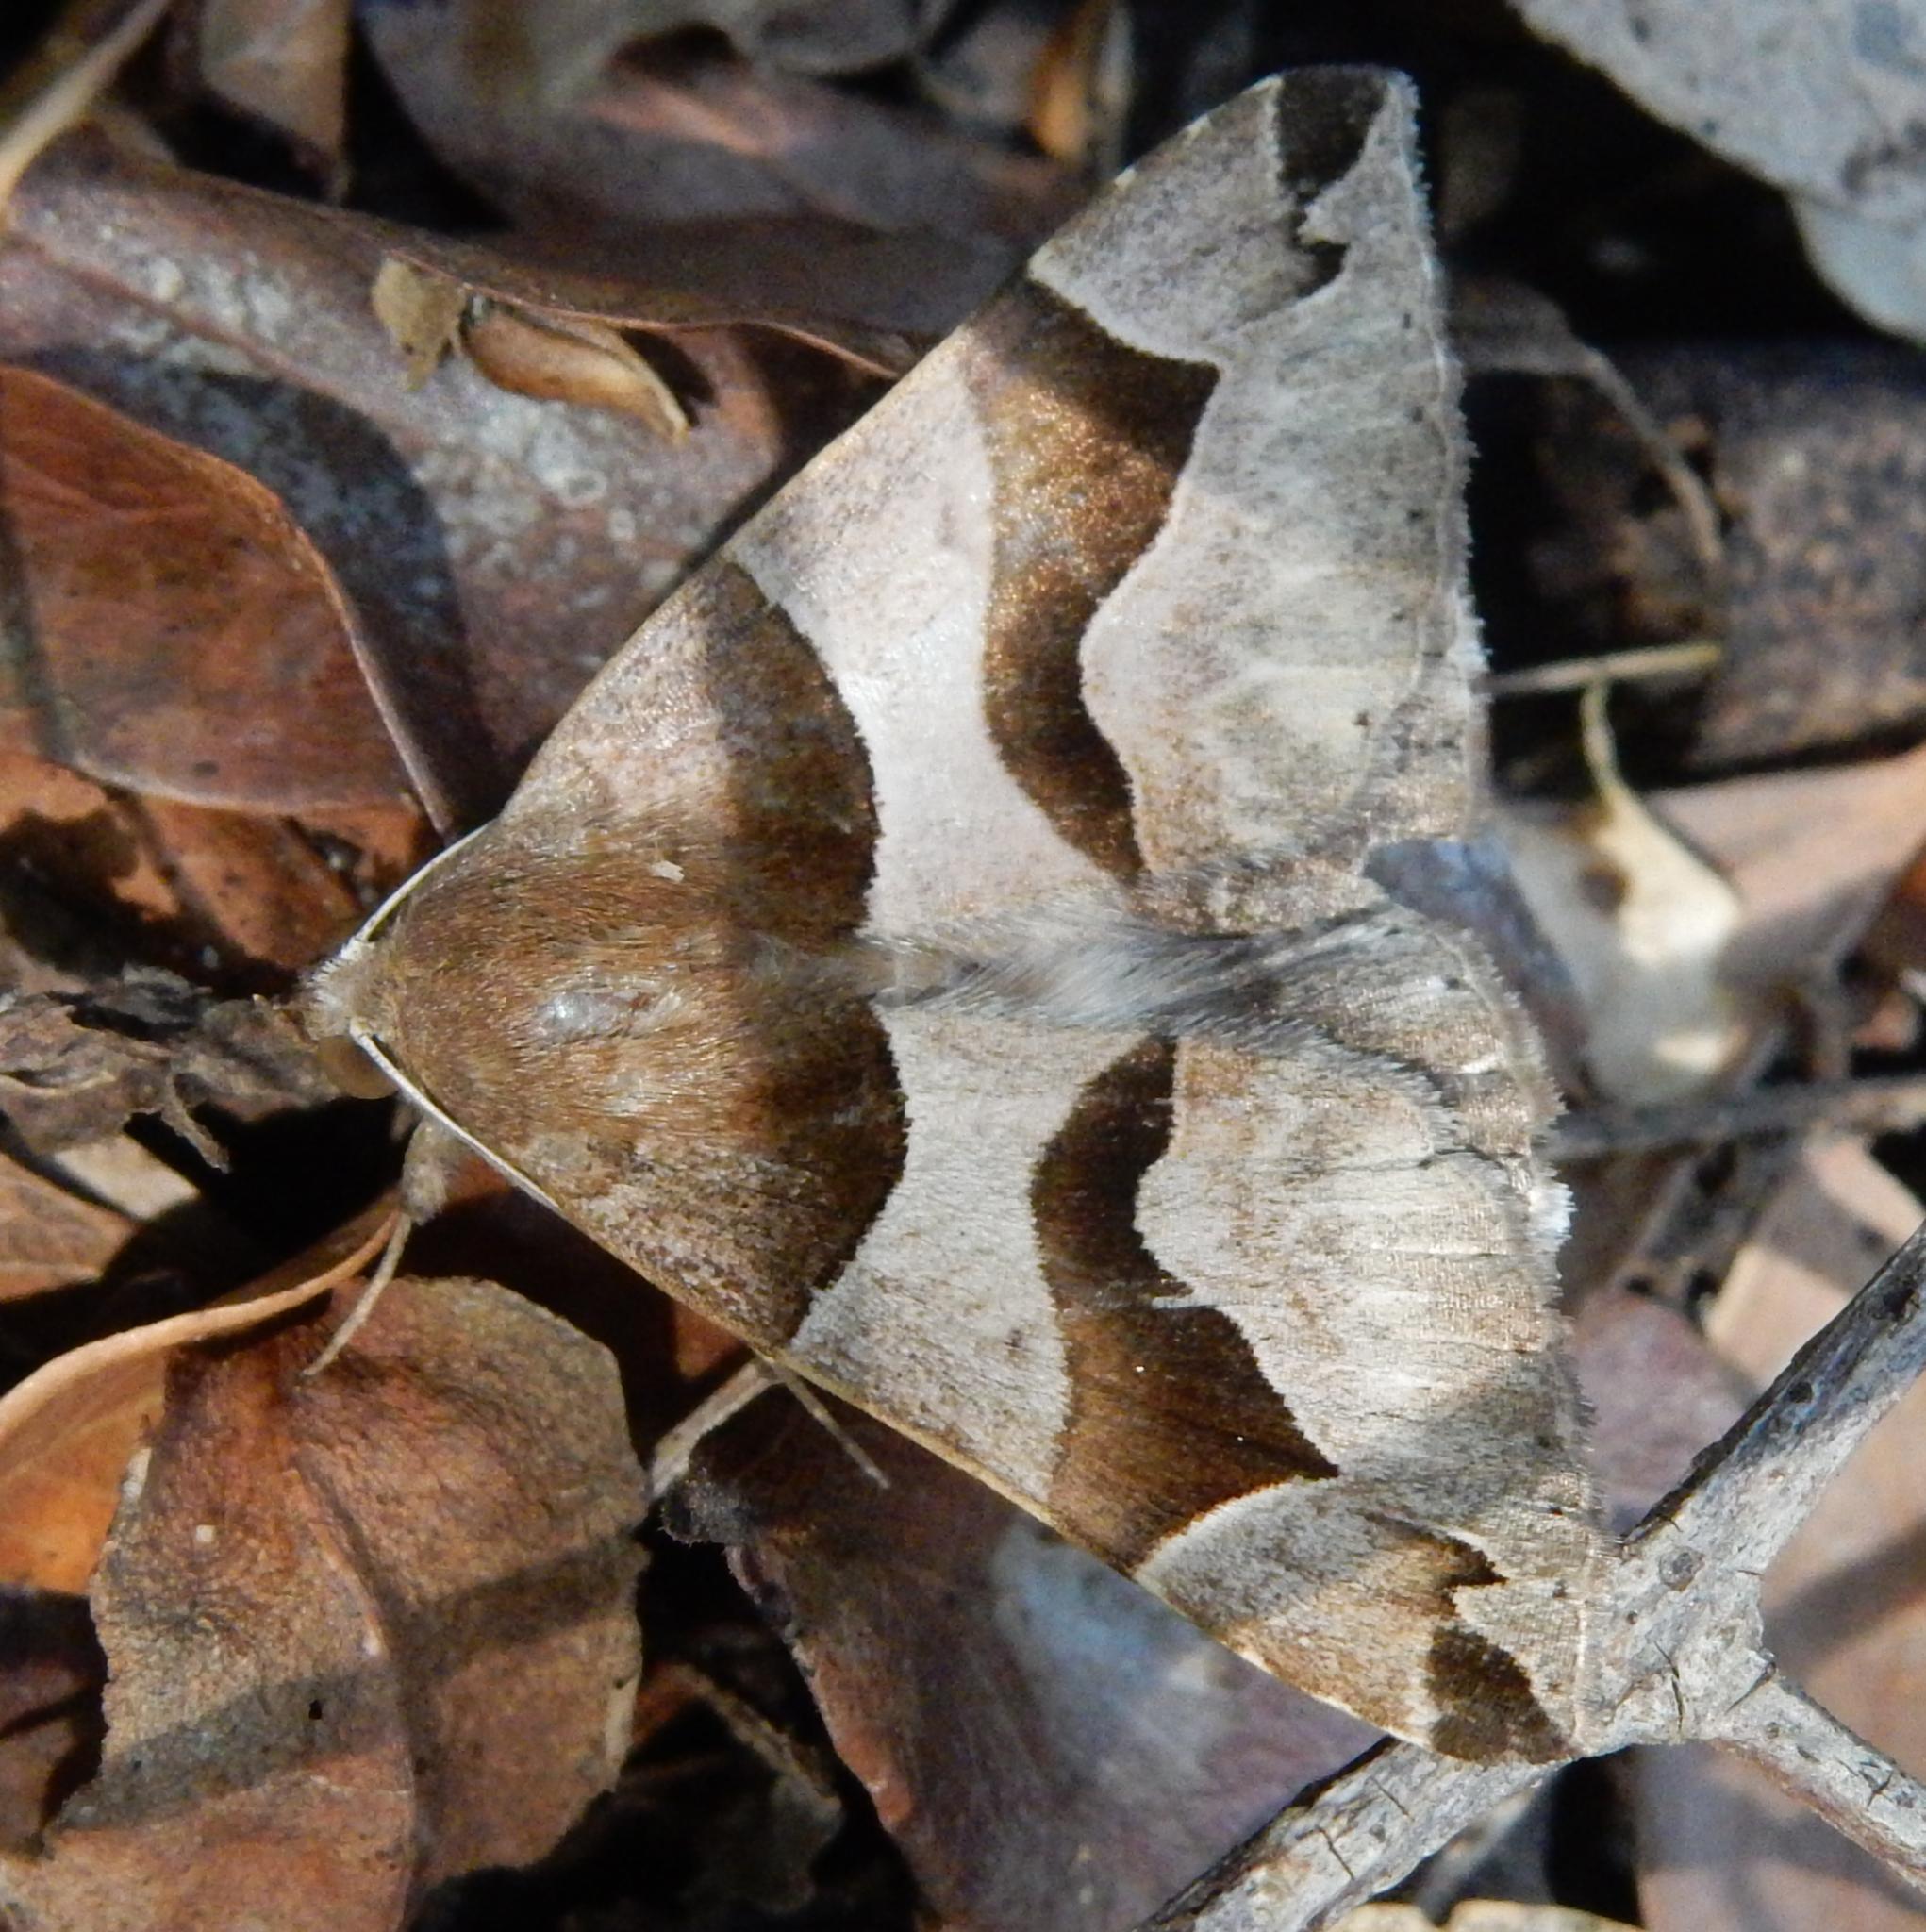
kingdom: Animalia
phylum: Arthropoda
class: Insecta
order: Lepidoptera
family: Erebidae
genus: Dysgonia
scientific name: Dysgonia torrida
